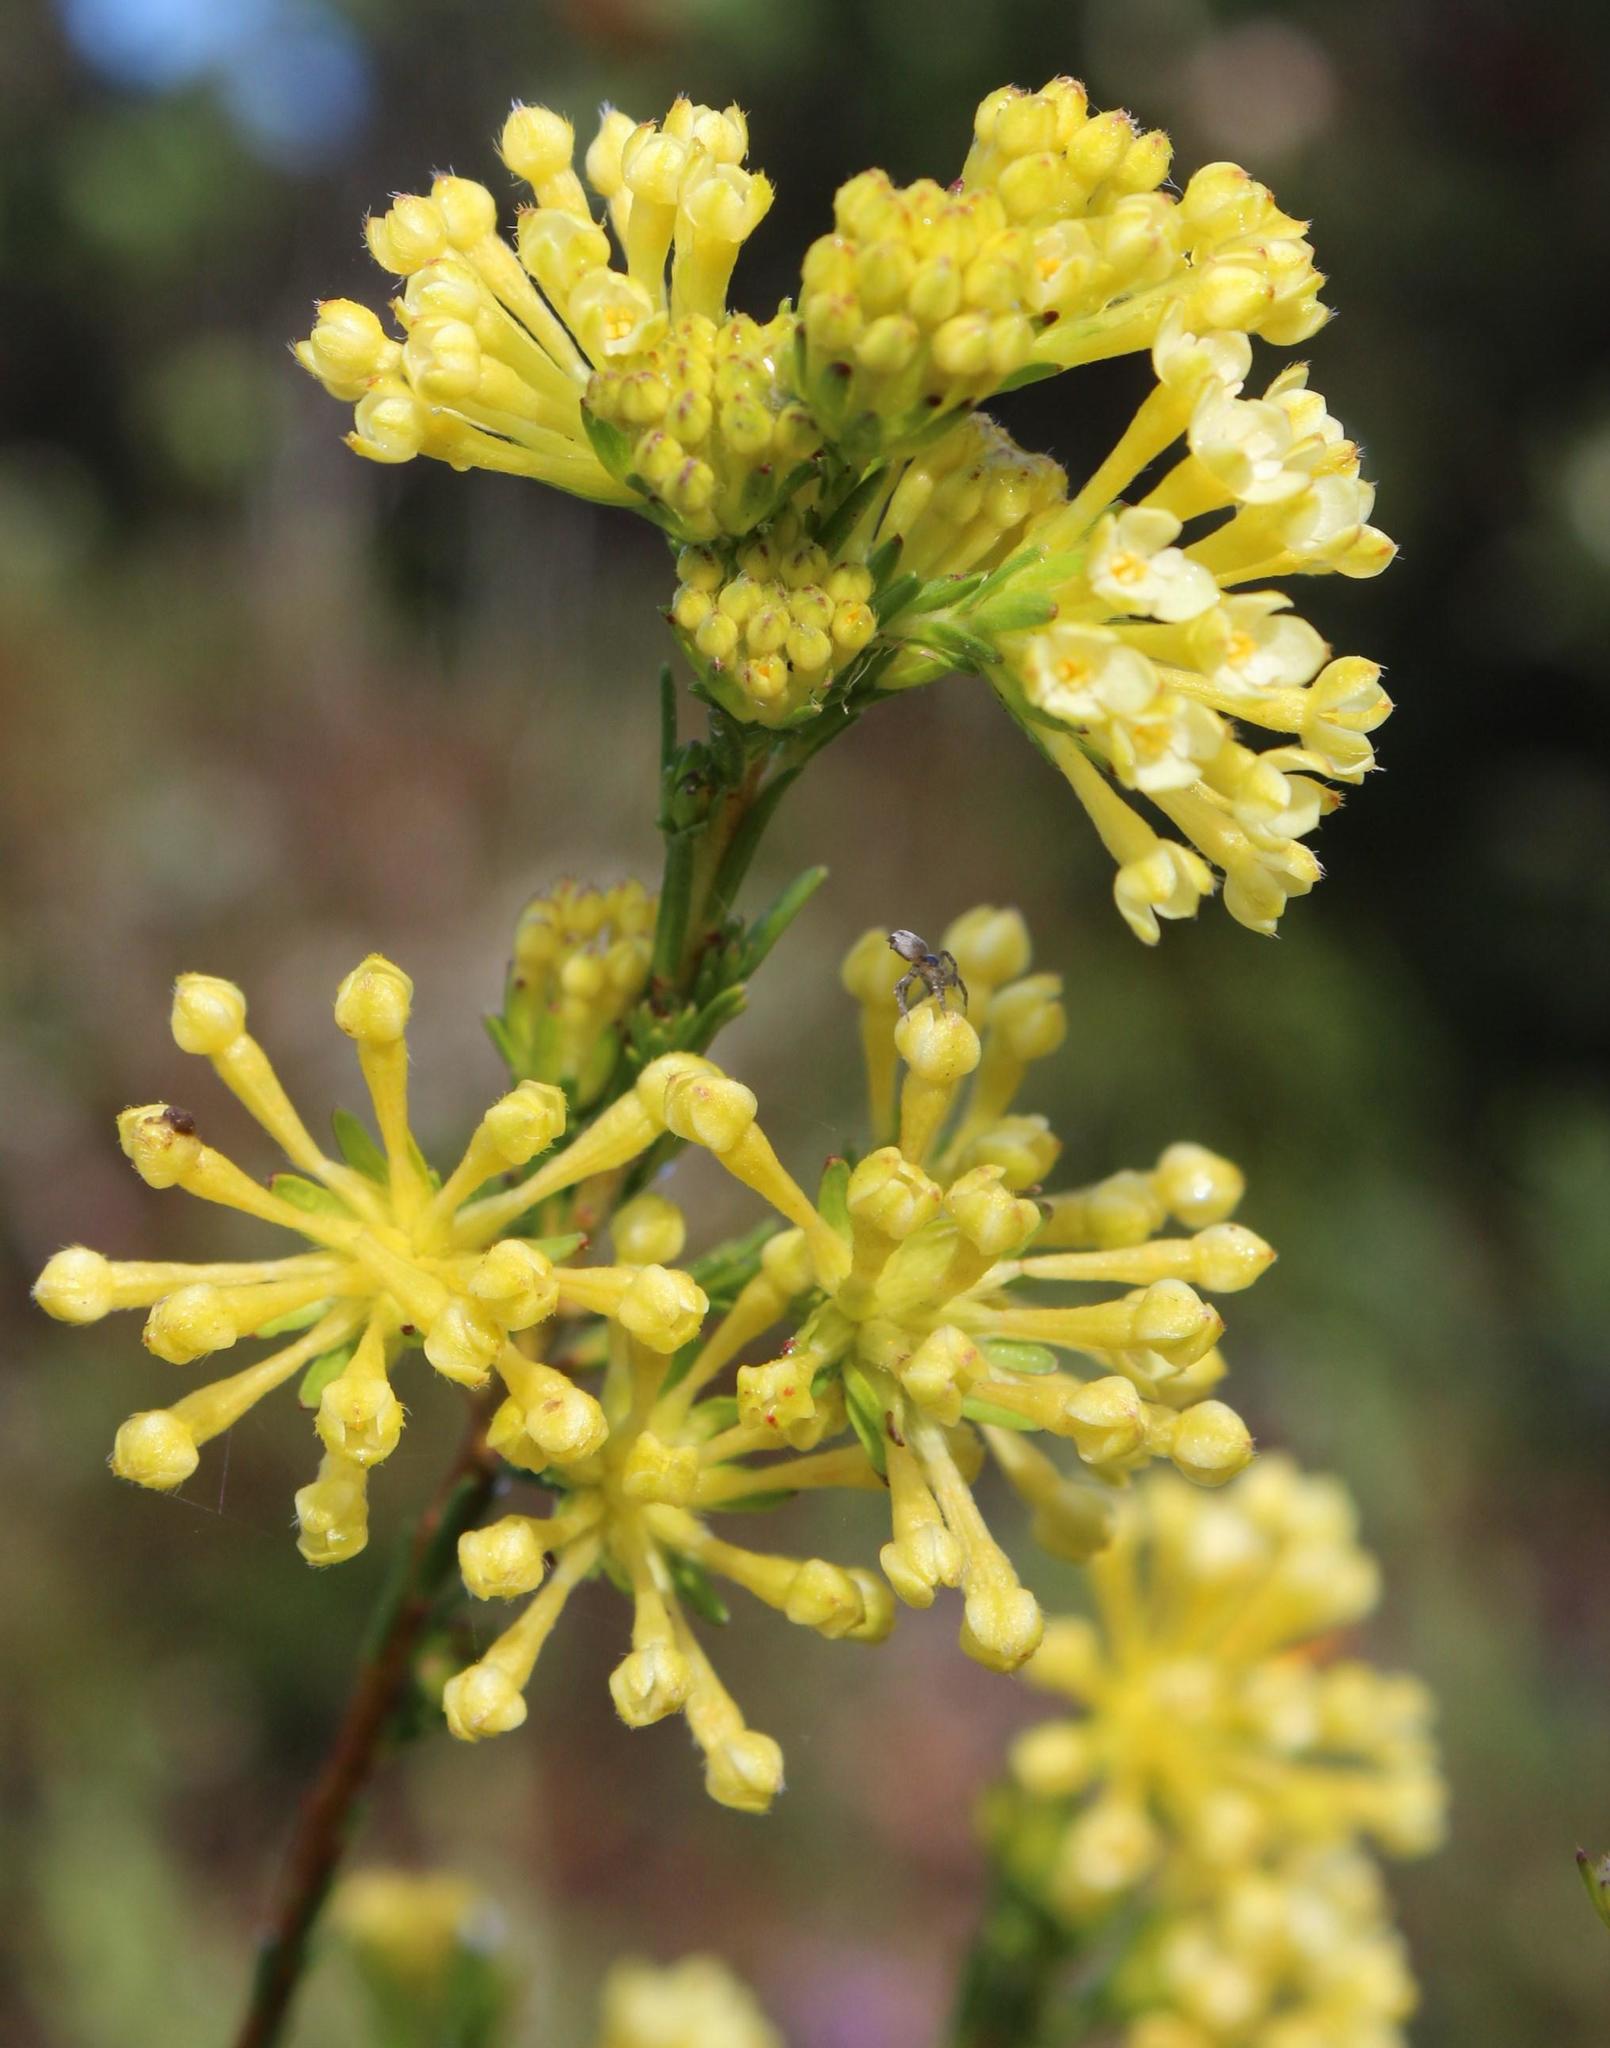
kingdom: Plantae
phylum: Tracheophyta
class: Magnoliopsida
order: Malvales
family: Thymelaeaceae
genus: Gnidia
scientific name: Gnidia squarrosa
